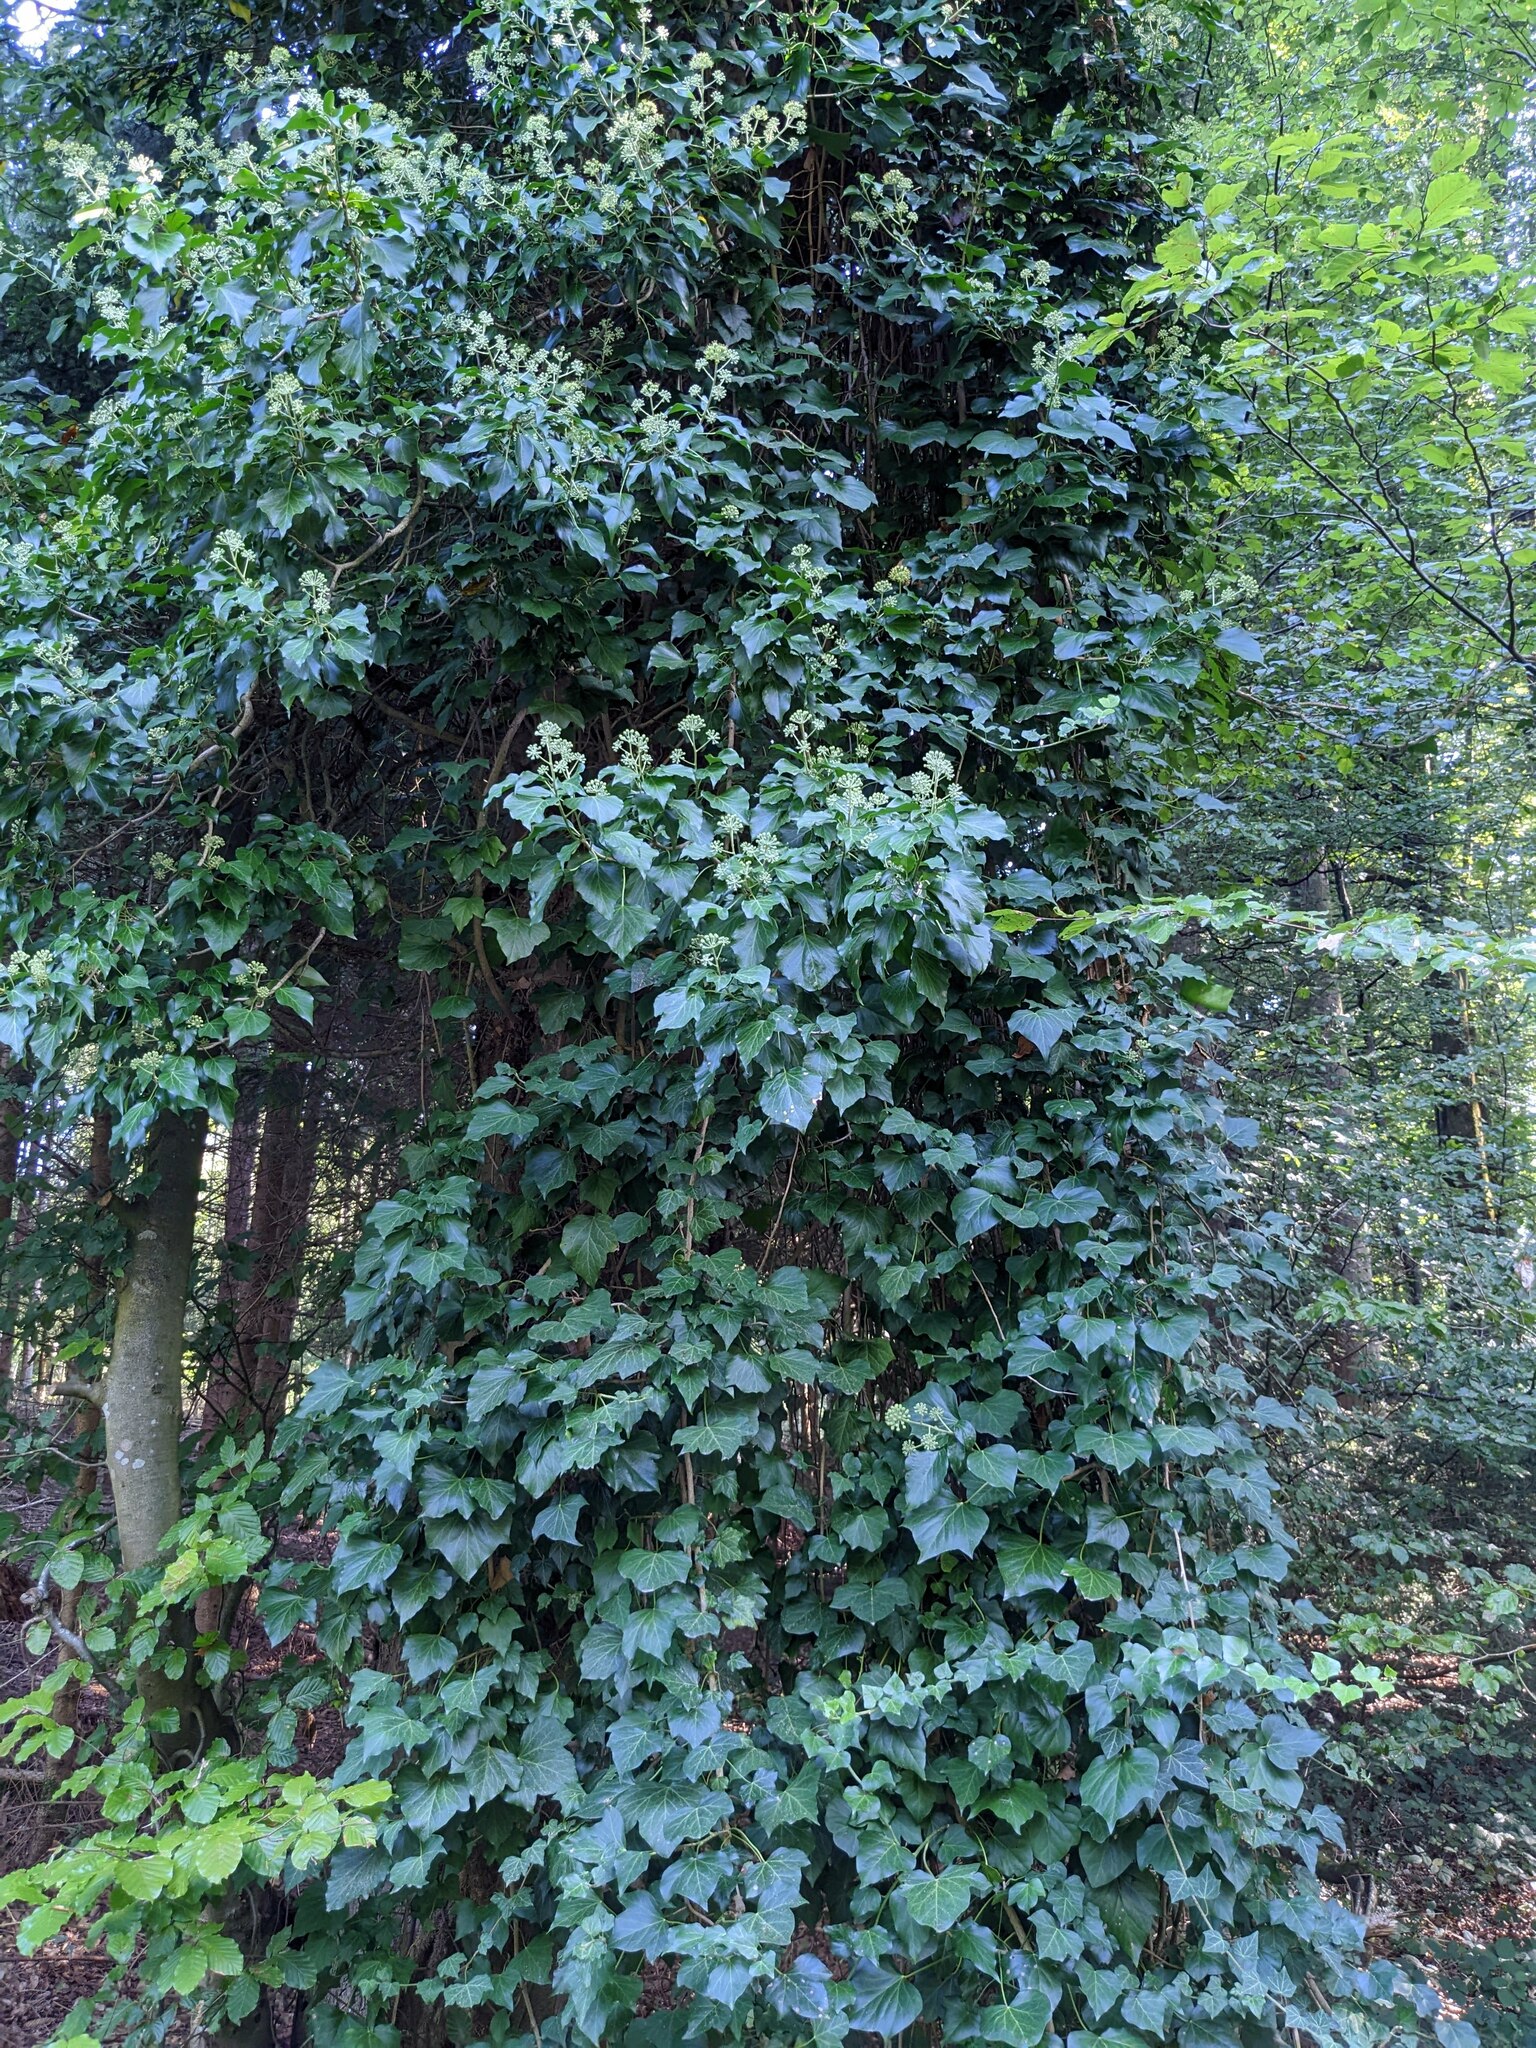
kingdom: Plantae
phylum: Tracheophyta
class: Magnoliopsida
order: Apiales
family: Araliaceae
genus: Hedera
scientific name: Hedera helix
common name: Ivy
